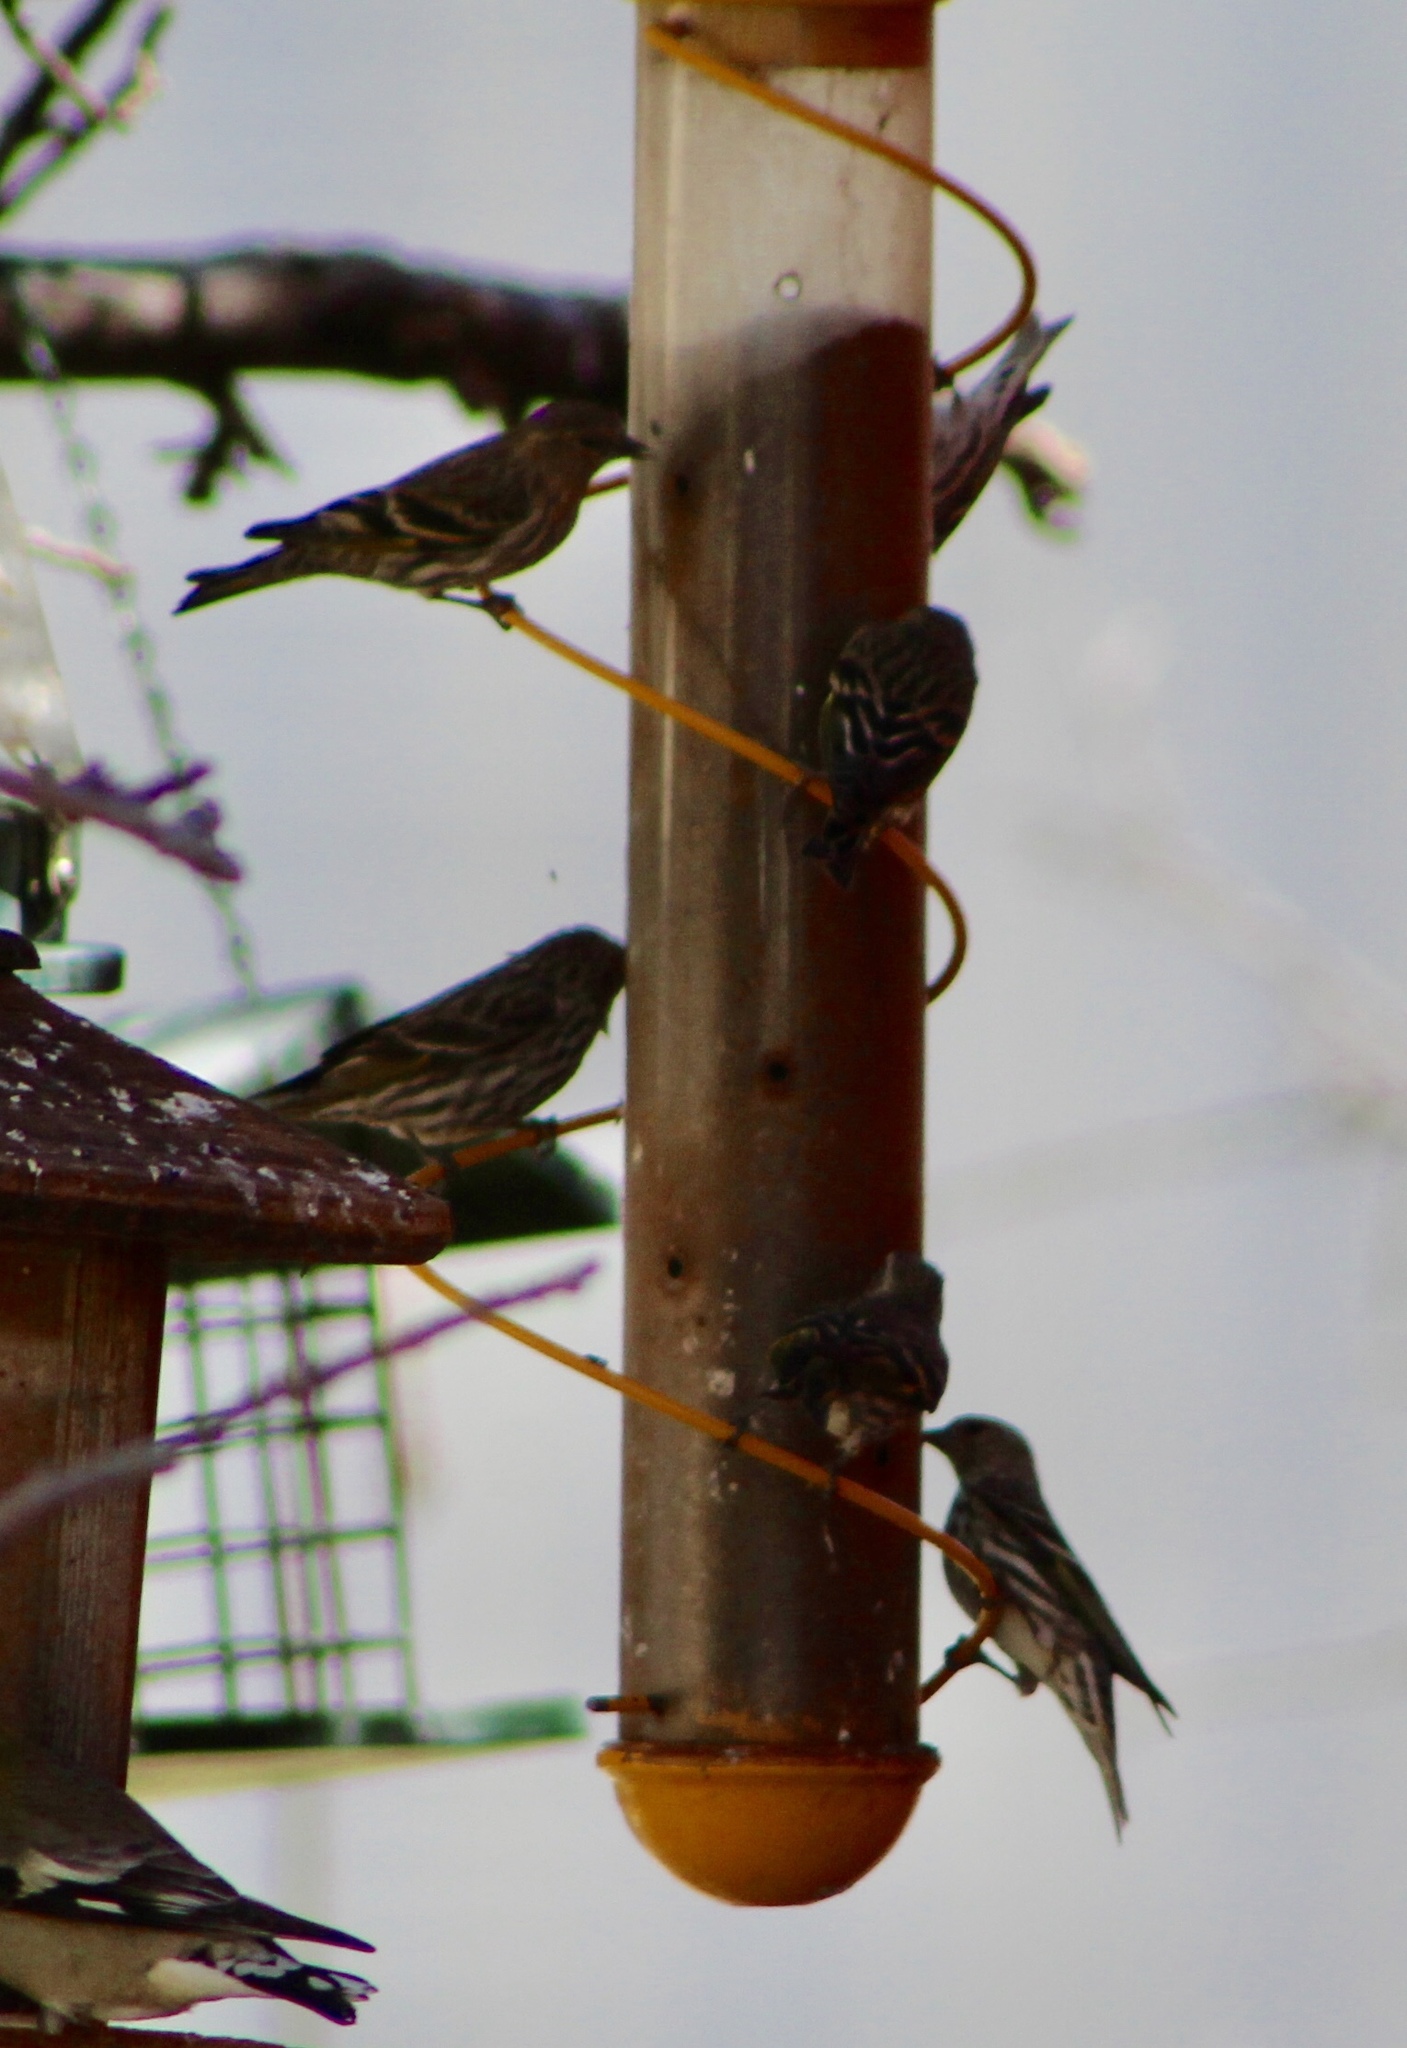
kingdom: Animalia
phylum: Chordata
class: Aves
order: Passeriformes
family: Fringillidae
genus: Spinus
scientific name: Spinus pinus
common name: Pine siskin
